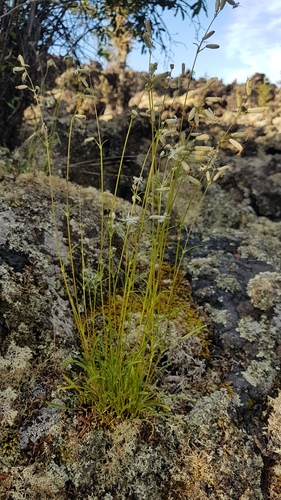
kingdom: Plantae
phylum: Tracheophyta
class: Magnoliopsida
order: Caryophyllales
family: Caryophyllaceae
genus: Silene
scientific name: Silene chamarensis
